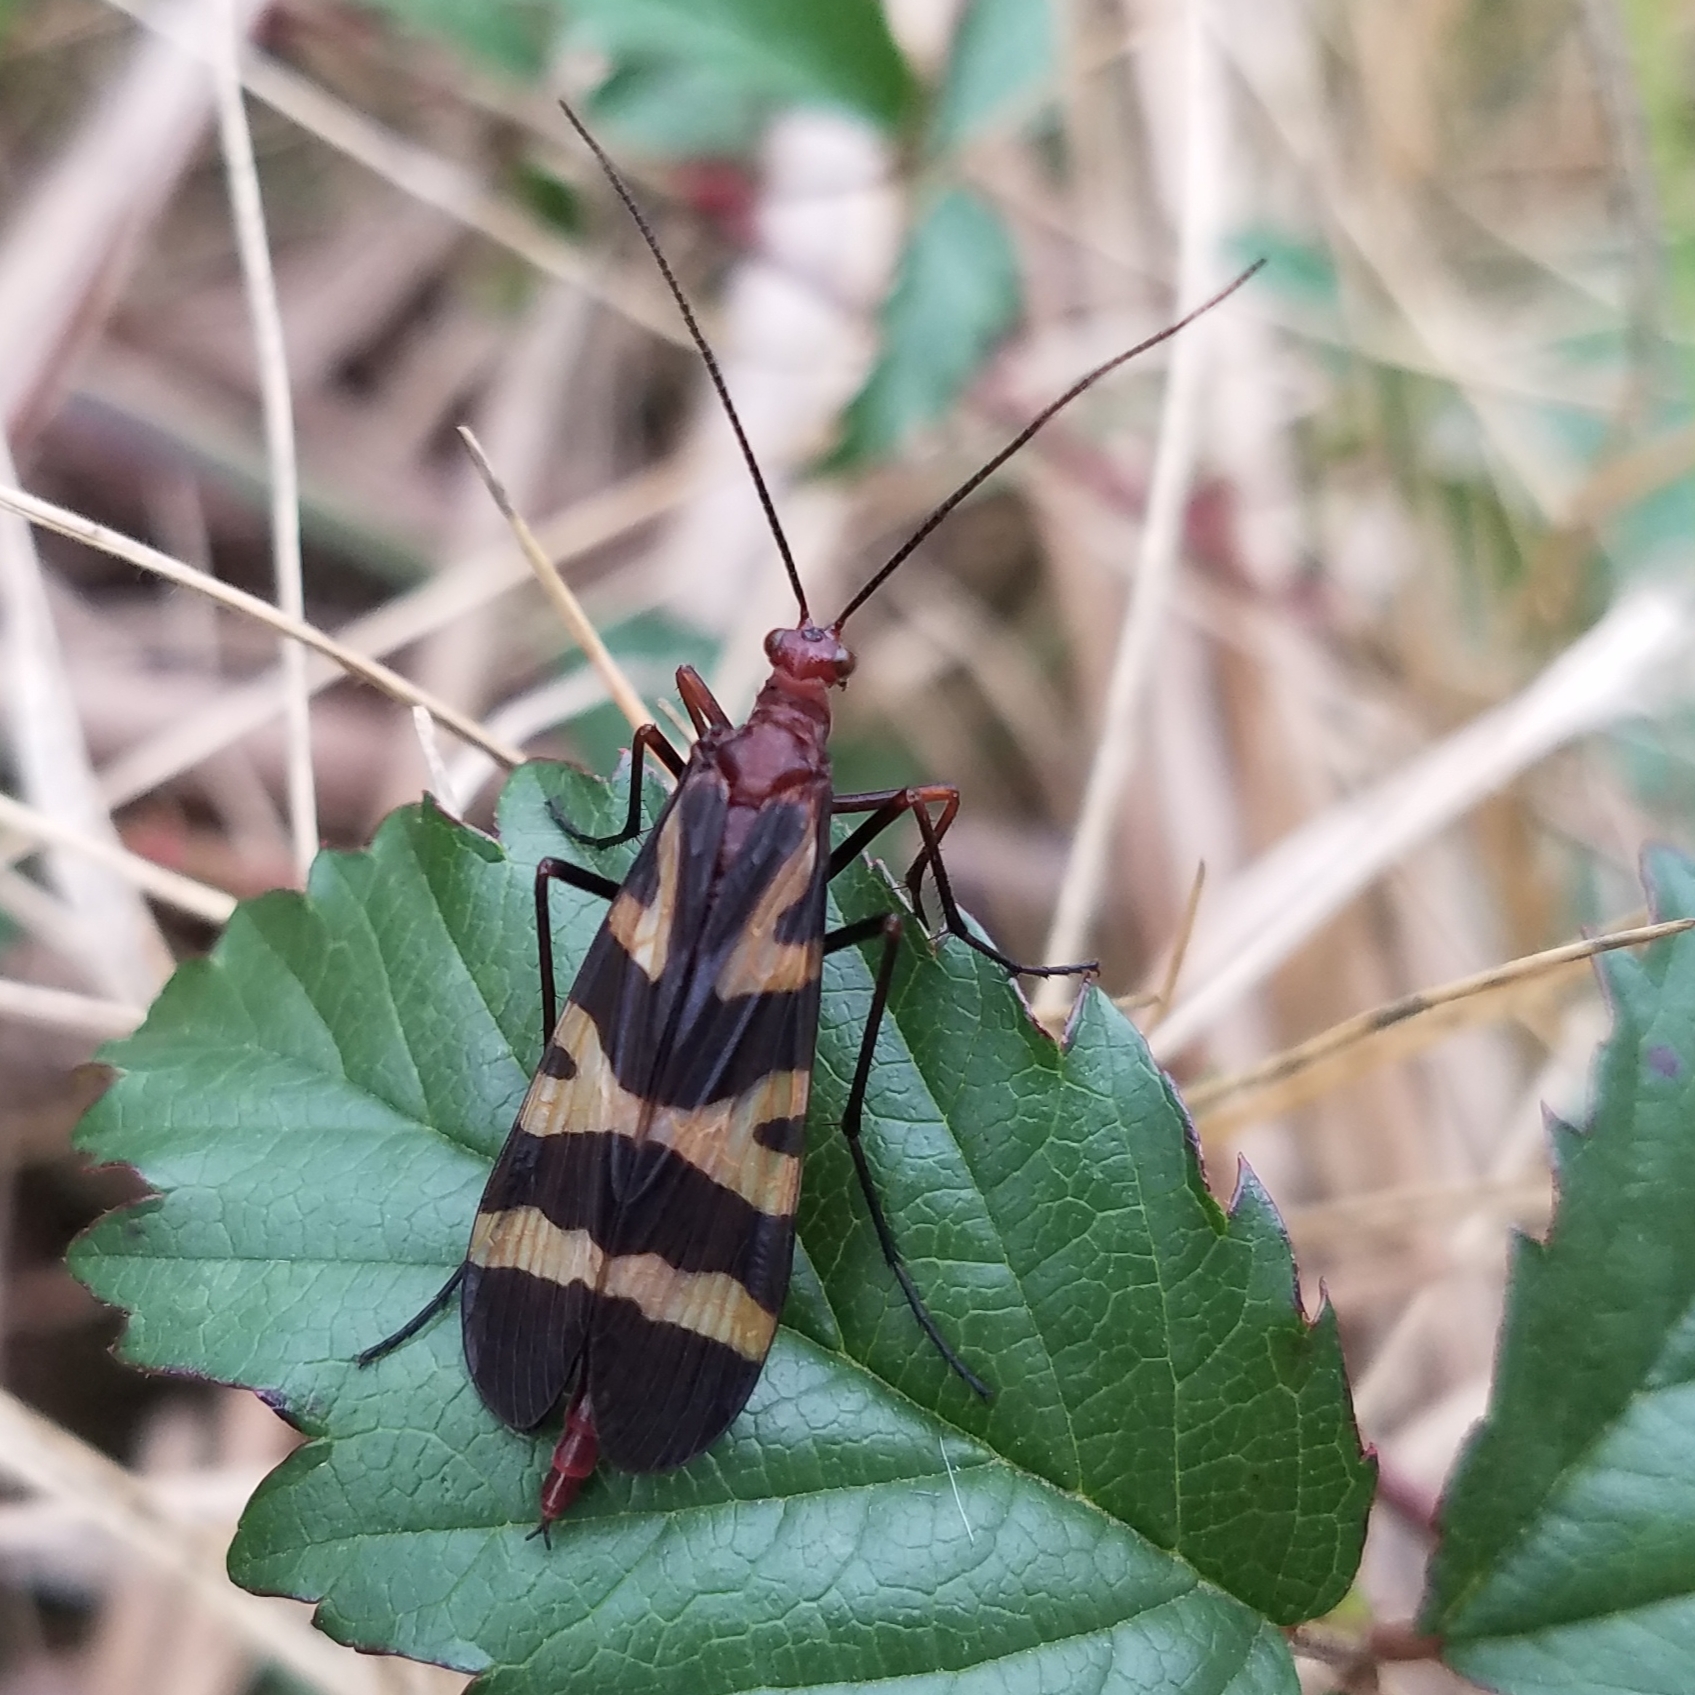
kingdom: Animalia
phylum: Arthropoda
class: Insecta
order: Mecoptera
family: Panorpidae
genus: Panorpa
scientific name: Panorpa nuptialis
